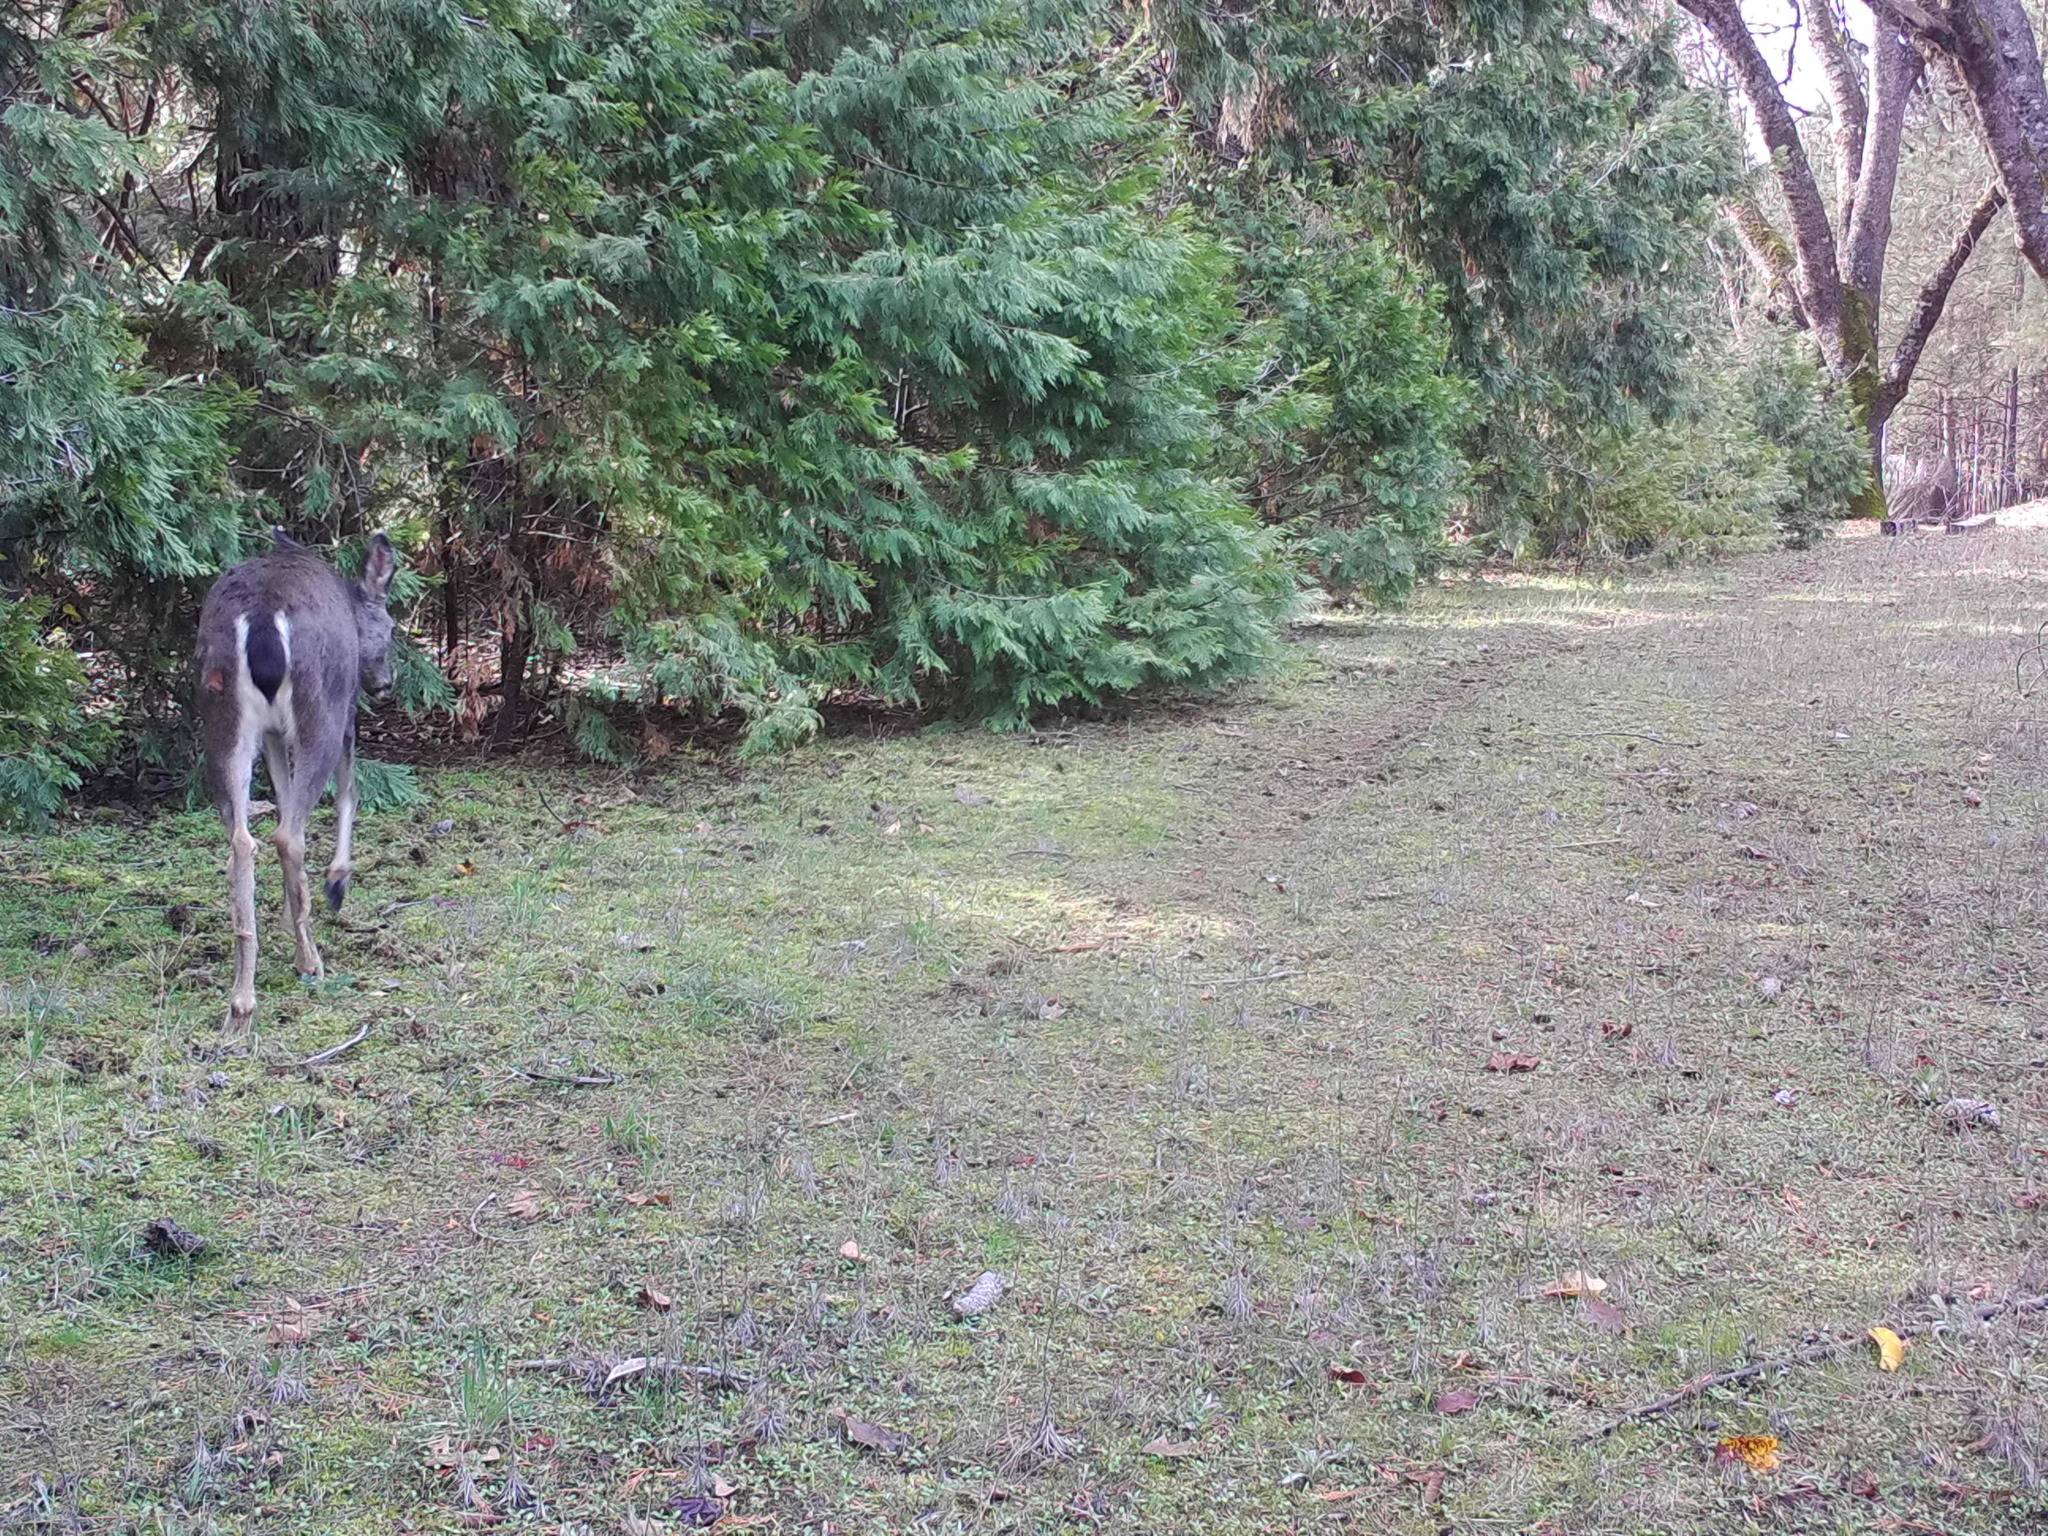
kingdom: Animalia
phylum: Chordata
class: Mammalia
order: Artiodactyla
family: Cervidae
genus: Odocoileus
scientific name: Odocoileus hemionus
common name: Mule deer
